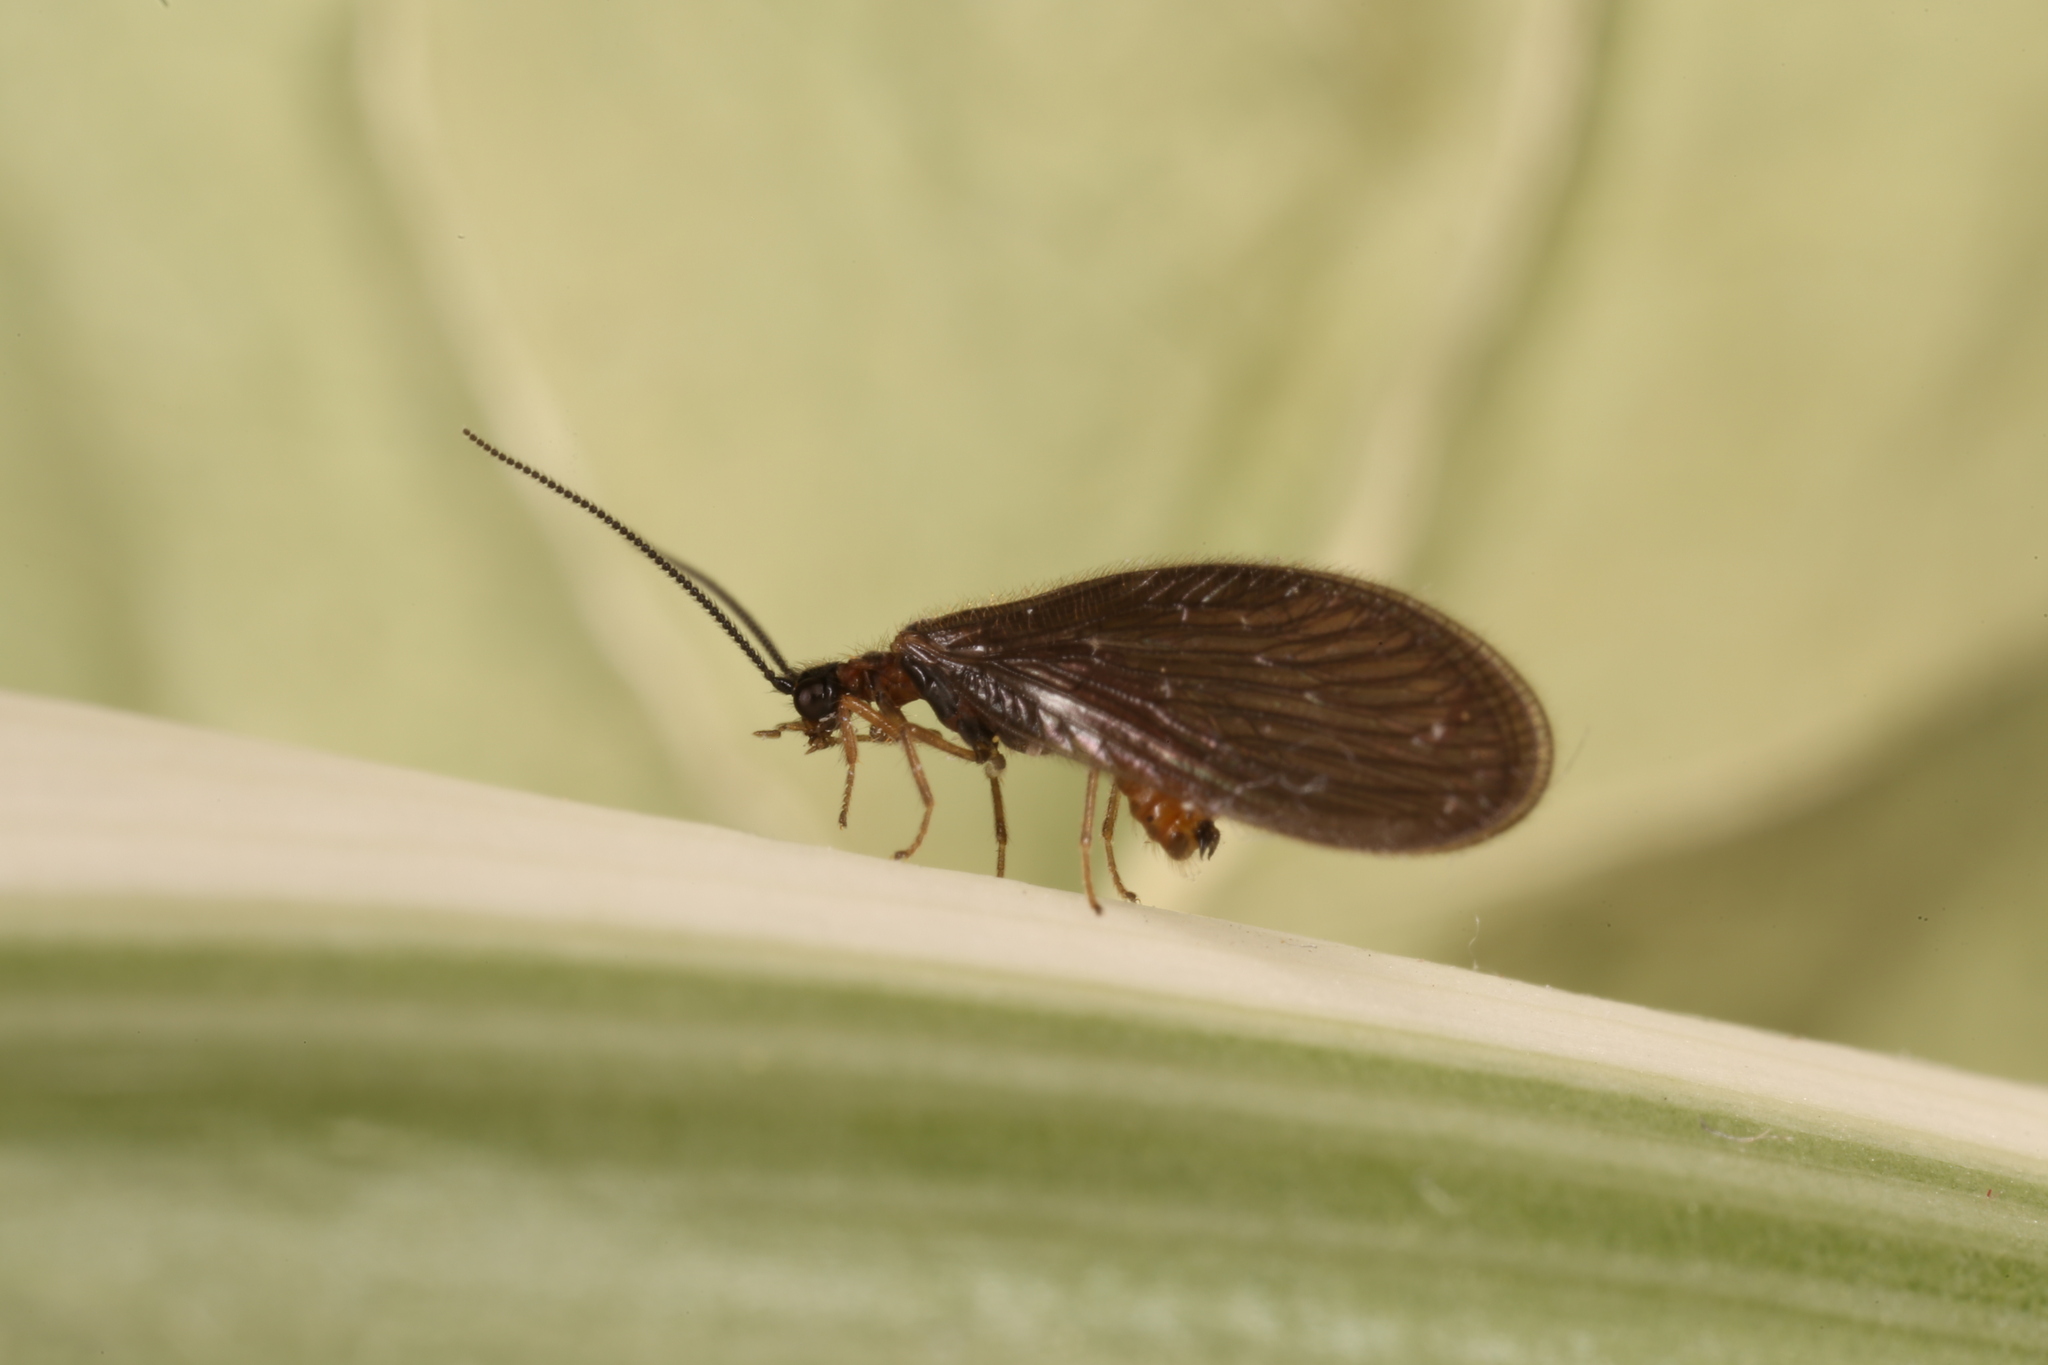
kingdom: Animalia
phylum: Arthropoda
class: Insecta
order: Neuroptera
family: Sisyridae
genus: Sisyra
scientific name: Sisyra nigra
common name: Black spongillafly
